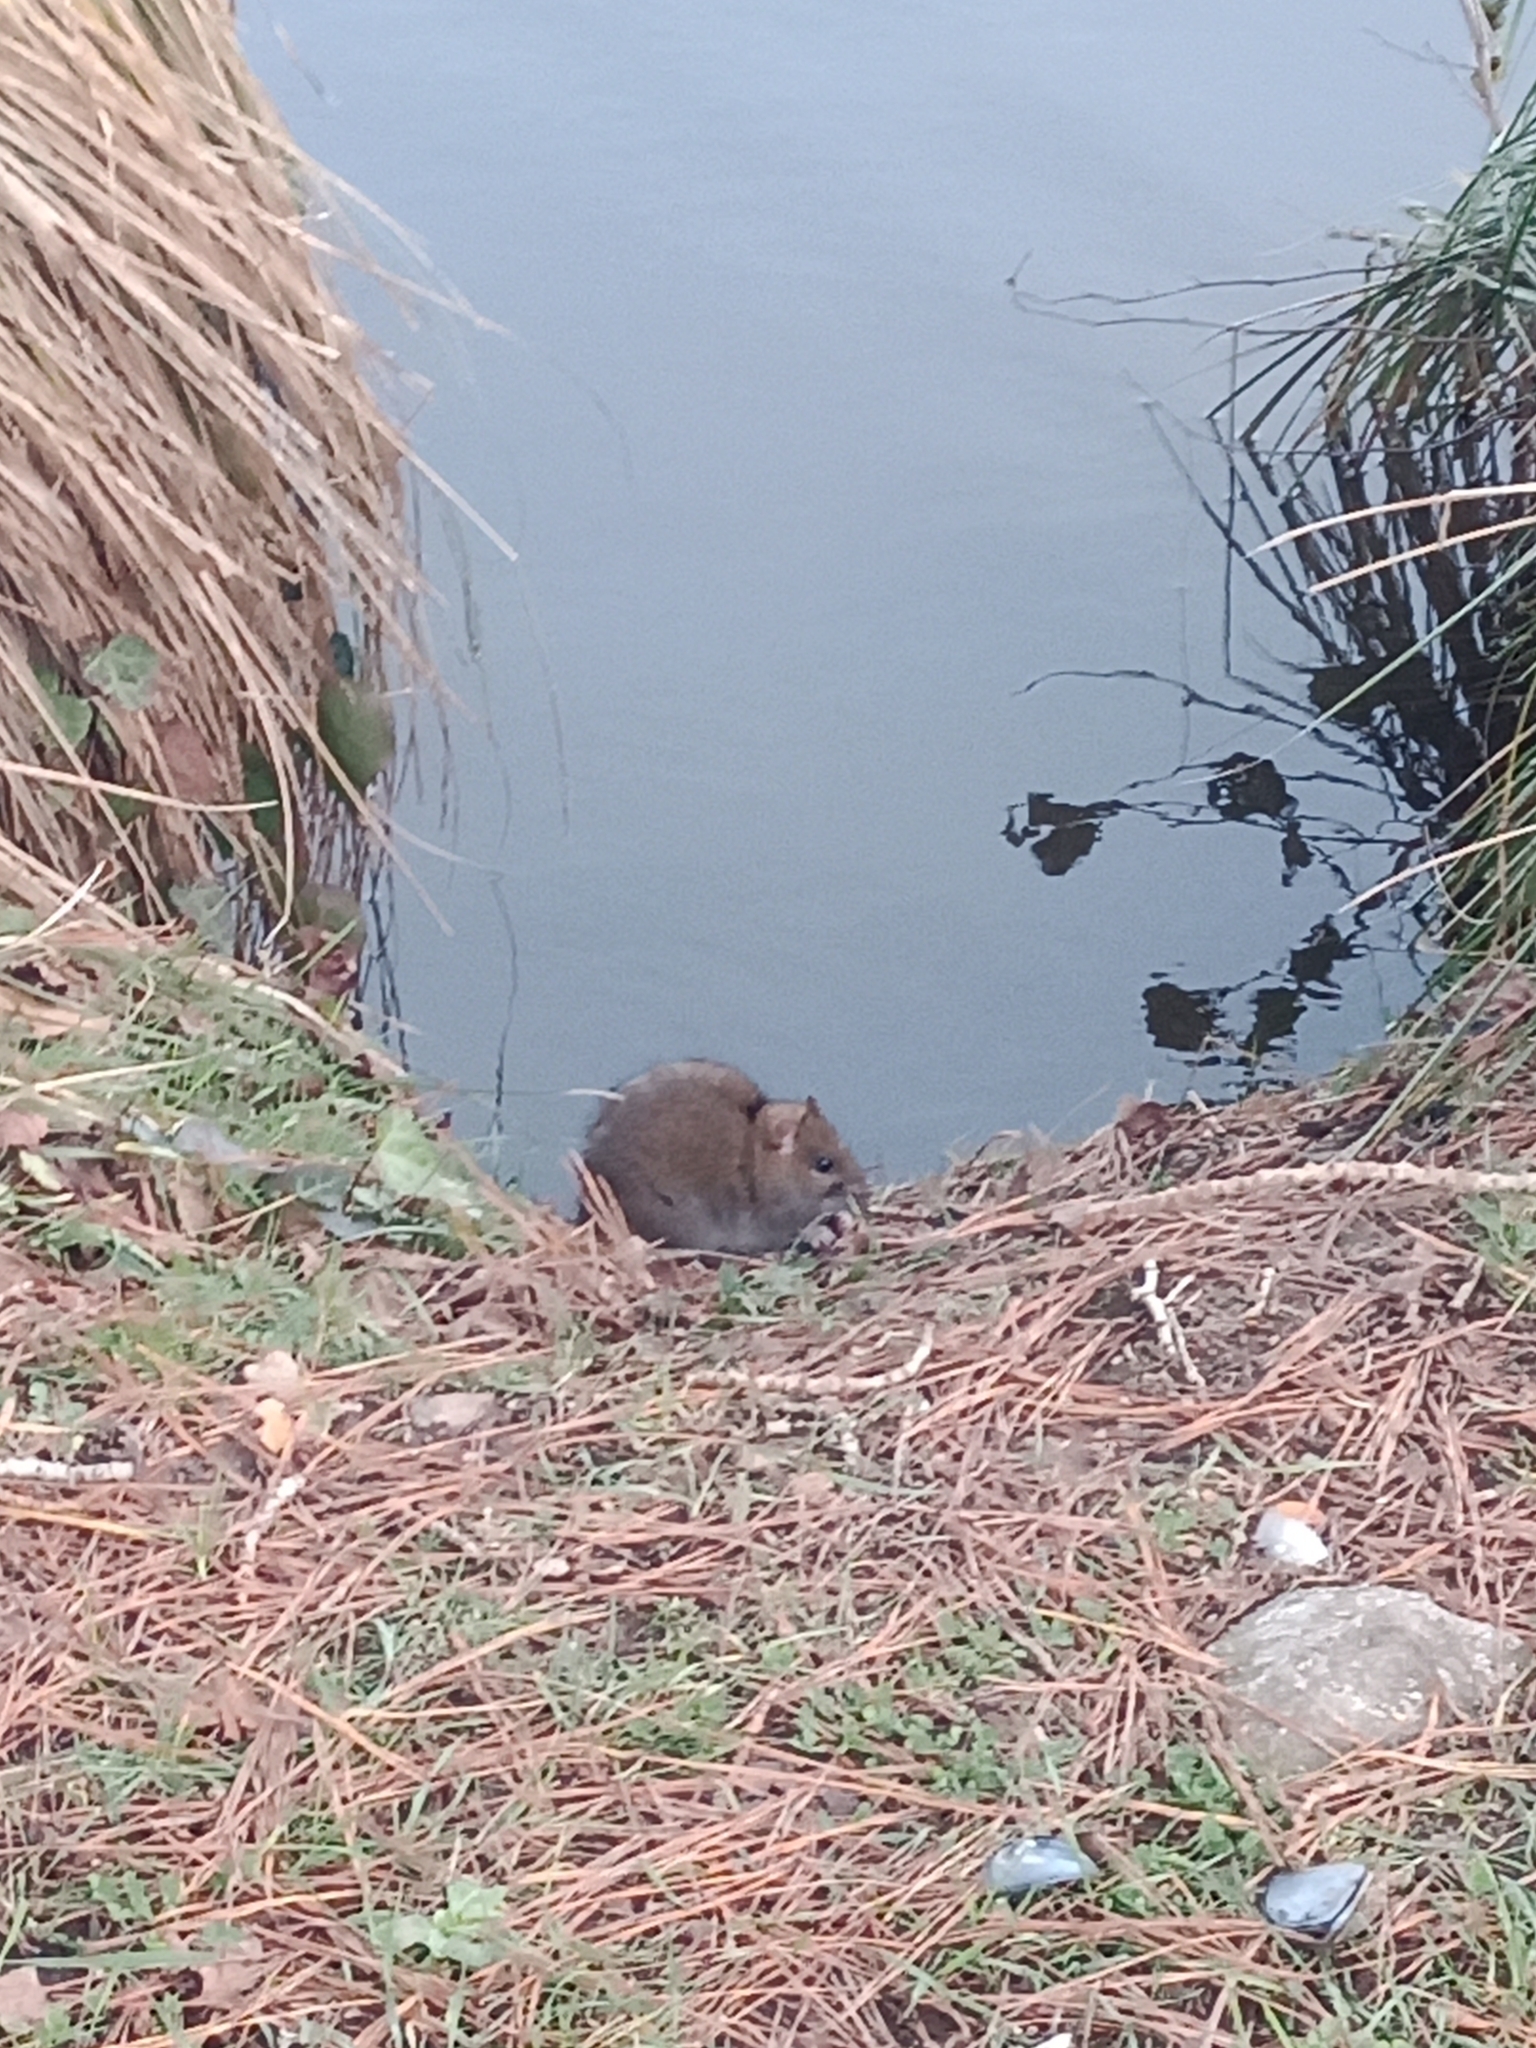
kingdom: Animalia
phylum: Chordata
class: Mammalia
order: Rodentia
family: Muridae
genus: Rattus
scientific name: Rattus norvegicus
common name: Brown rat
